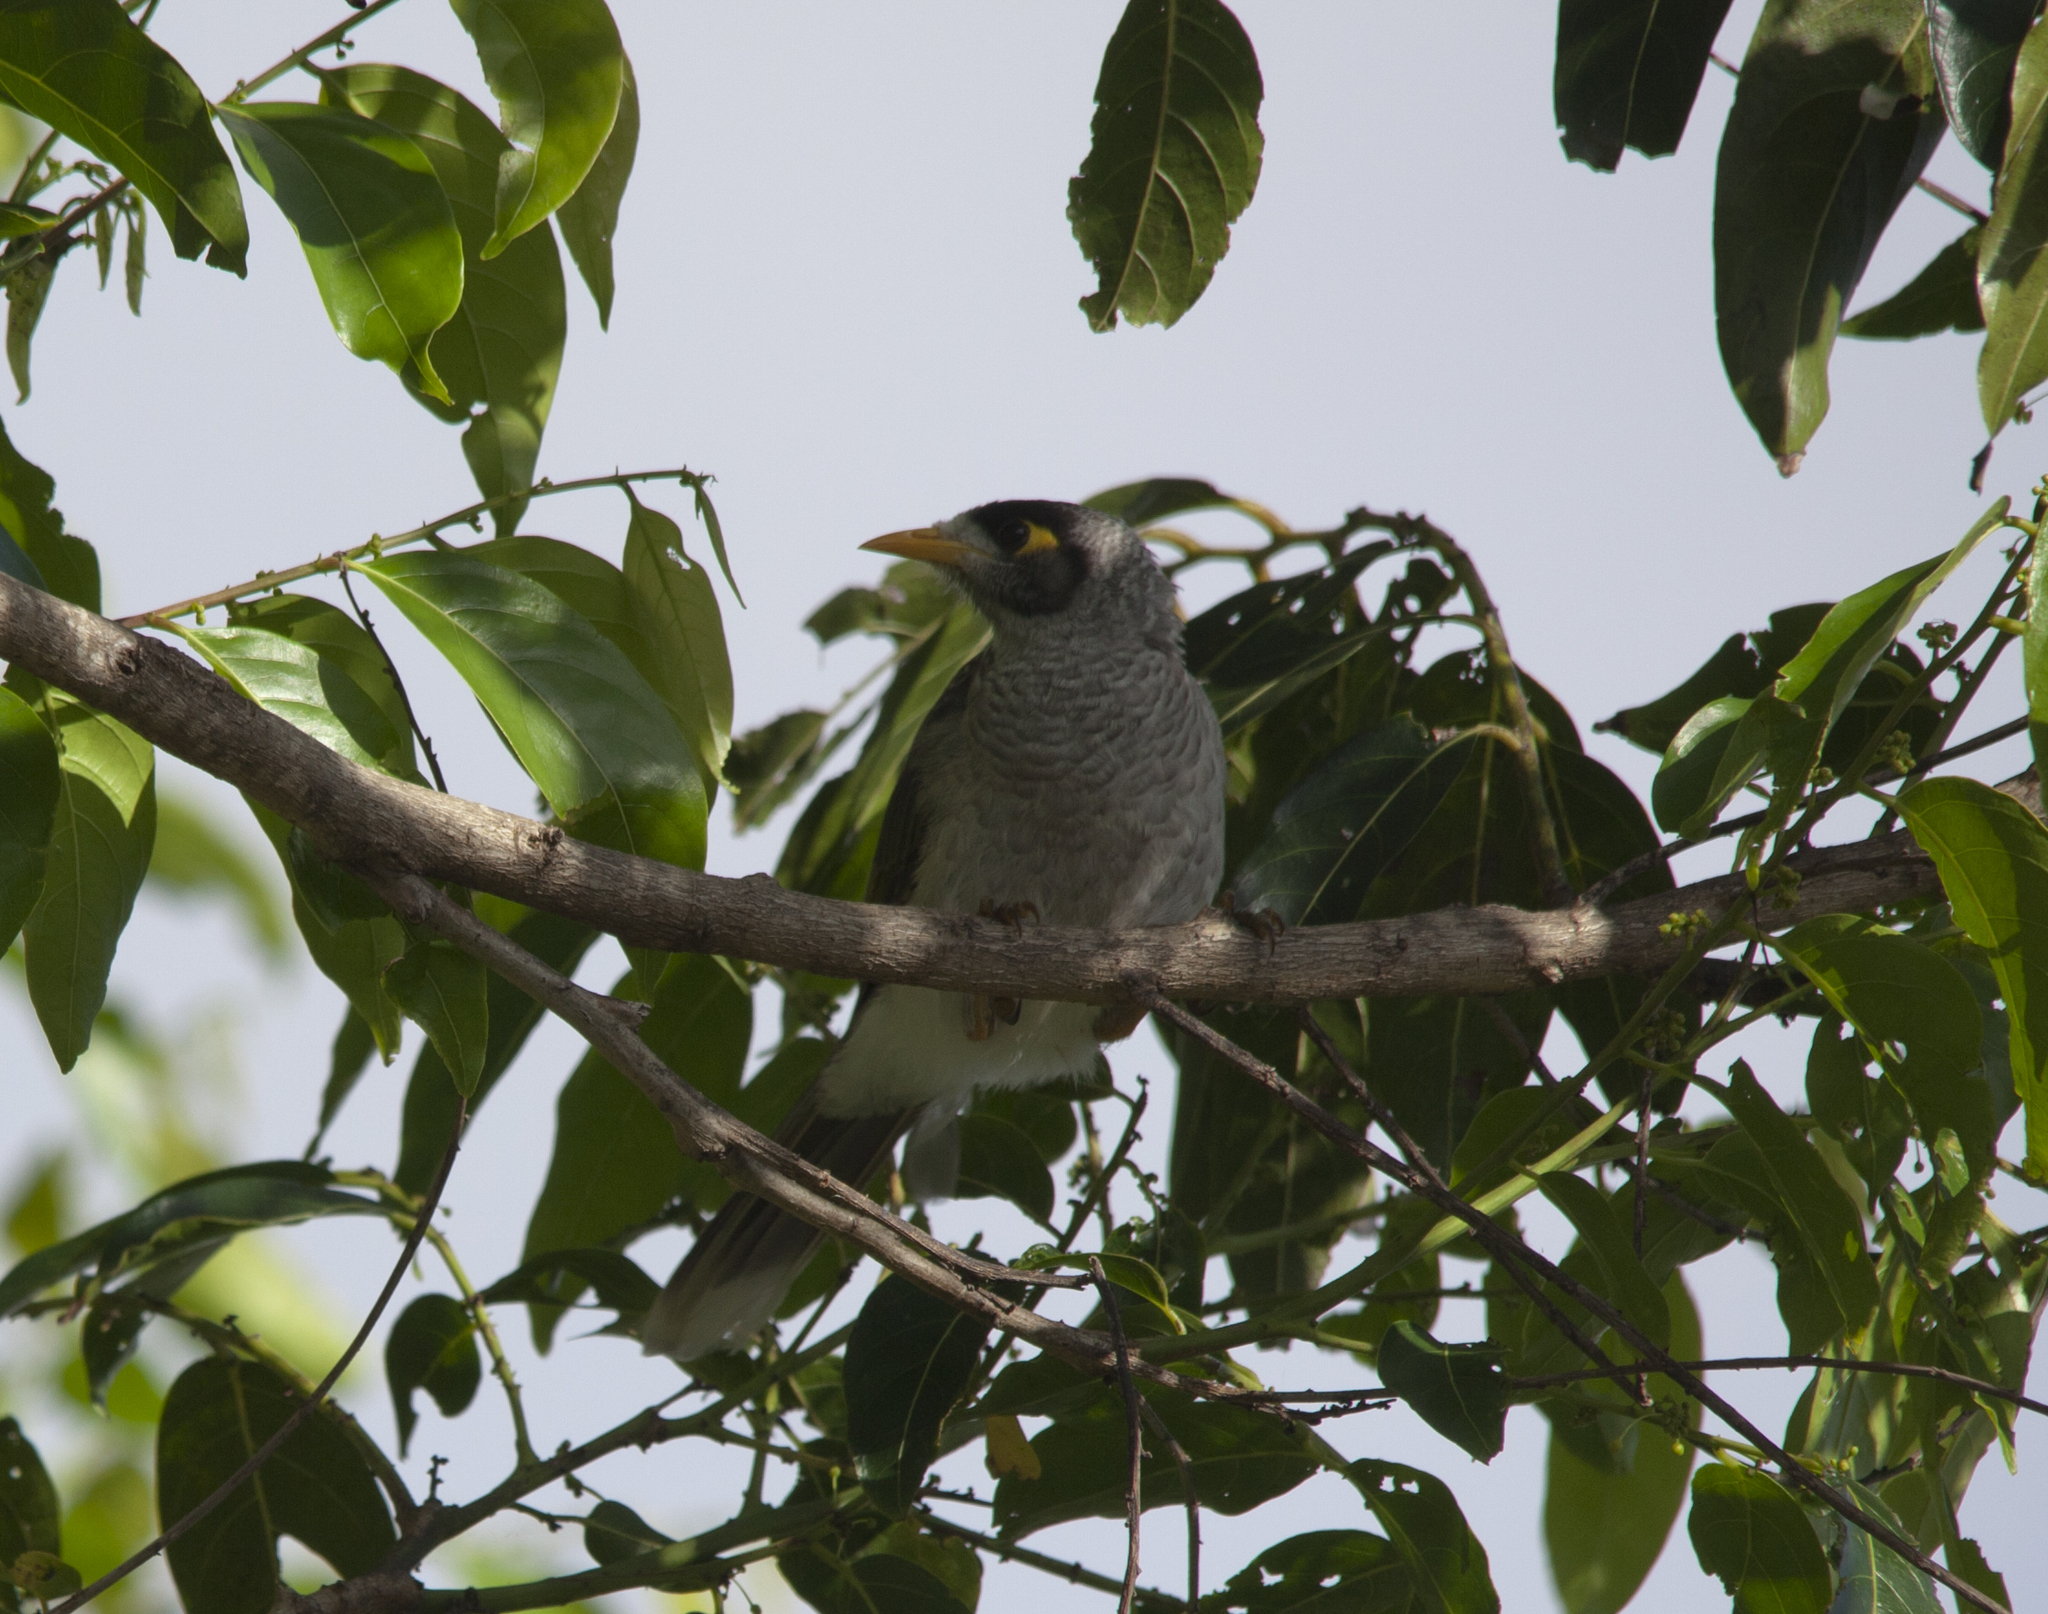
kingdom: Animalia
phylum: Chordata
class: Aves
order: Passeriformes
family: Meliphagidae
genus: Manorina
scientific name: Manorina melanocephala
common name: Noisy miner
